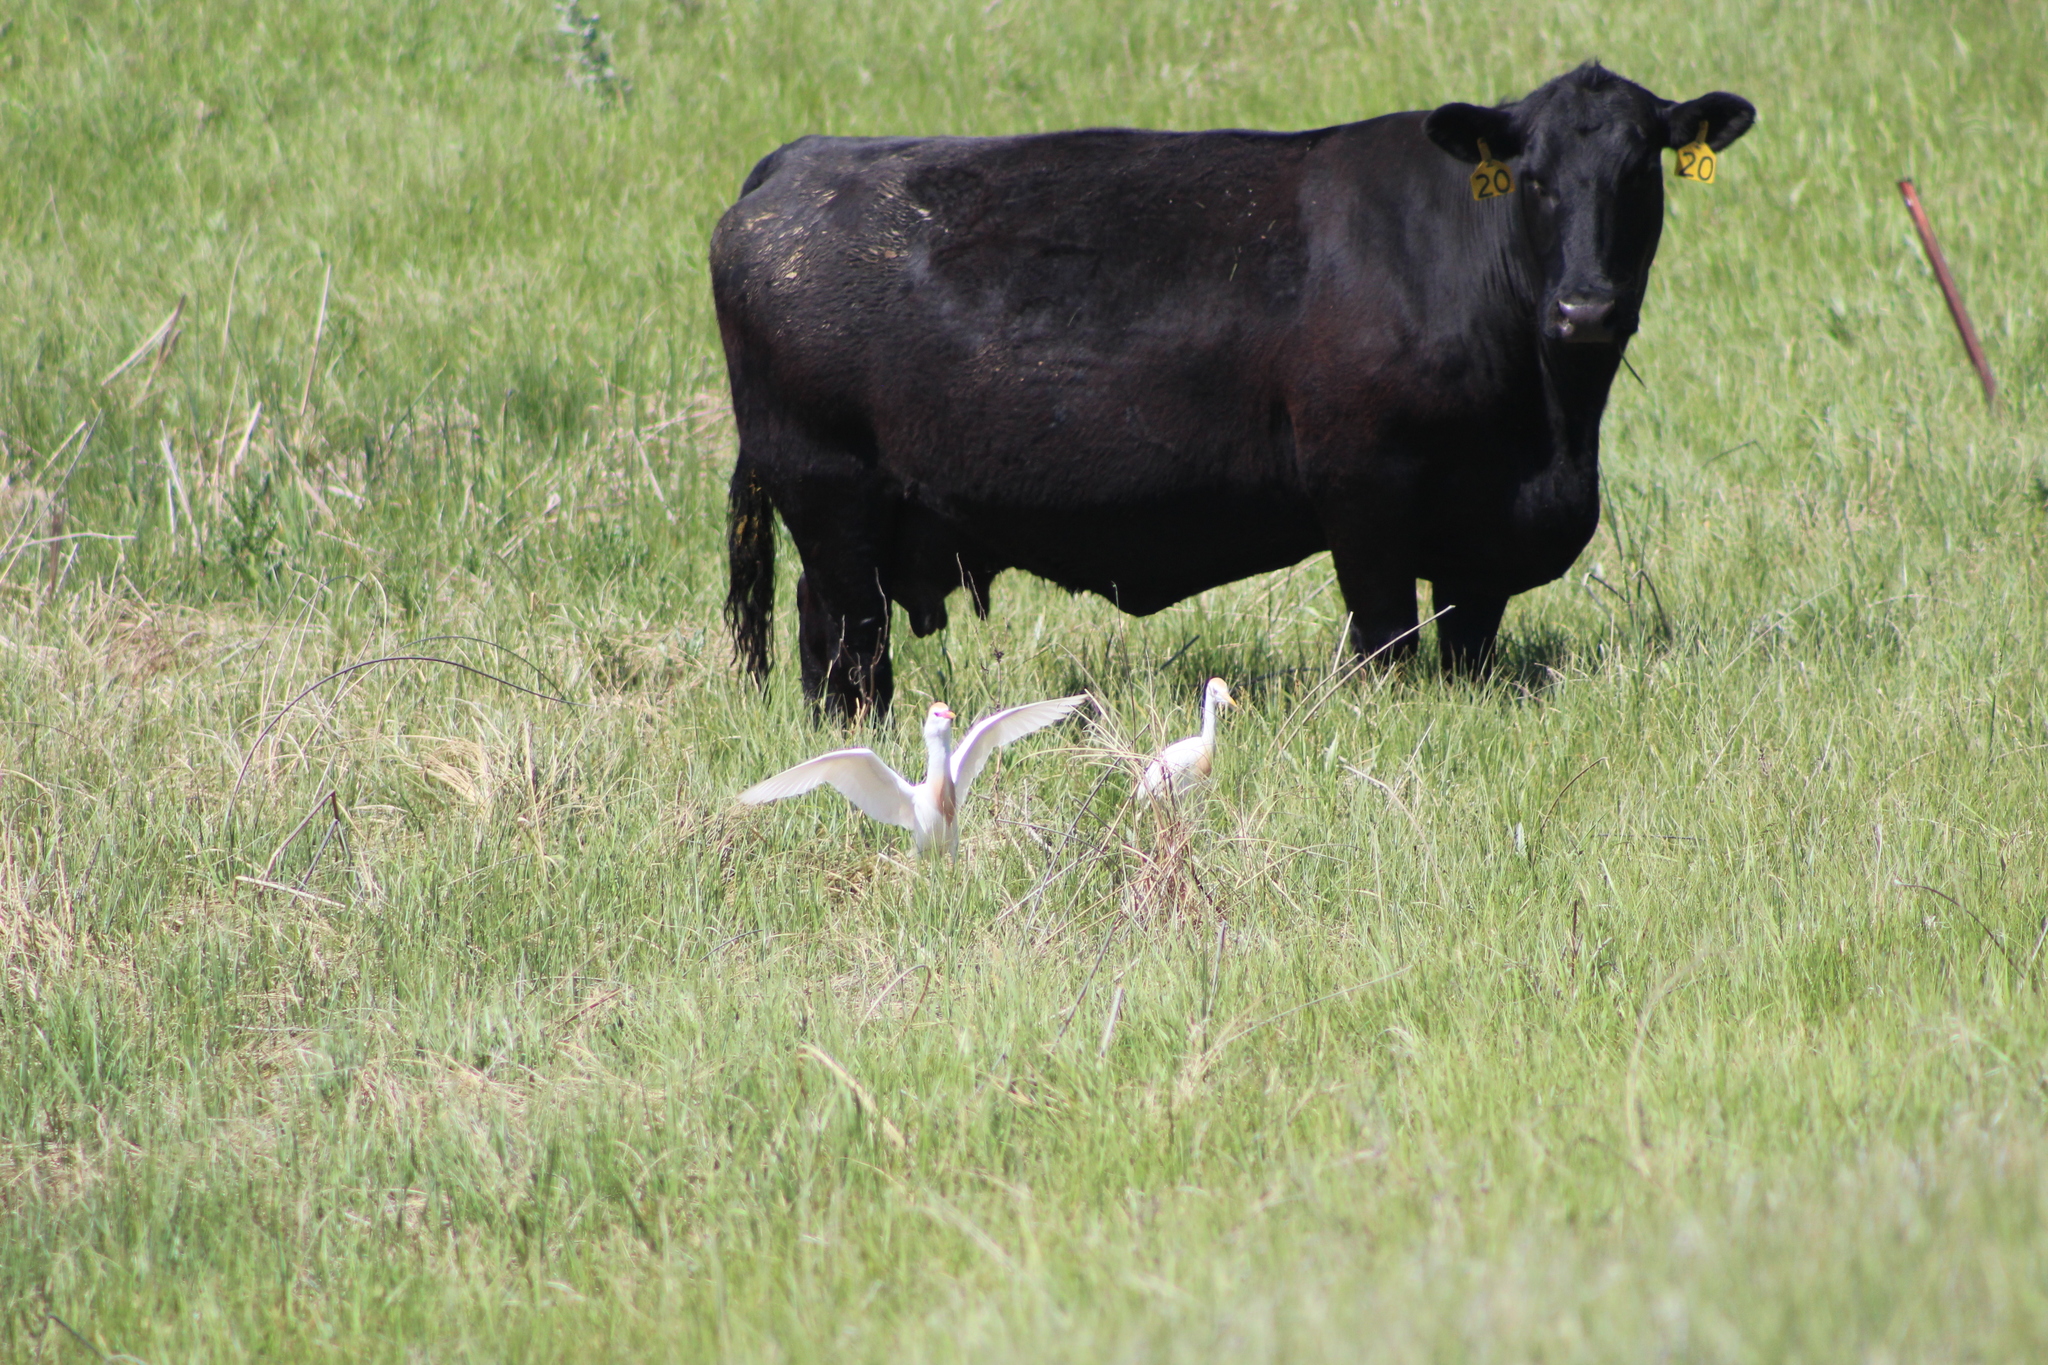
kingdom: Animalia
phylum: Chordata
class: Aves
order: Pelecaniformes
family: Ardeidae
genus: Bubulcus
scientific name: Bubulcus ibis
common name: Cattle egret
